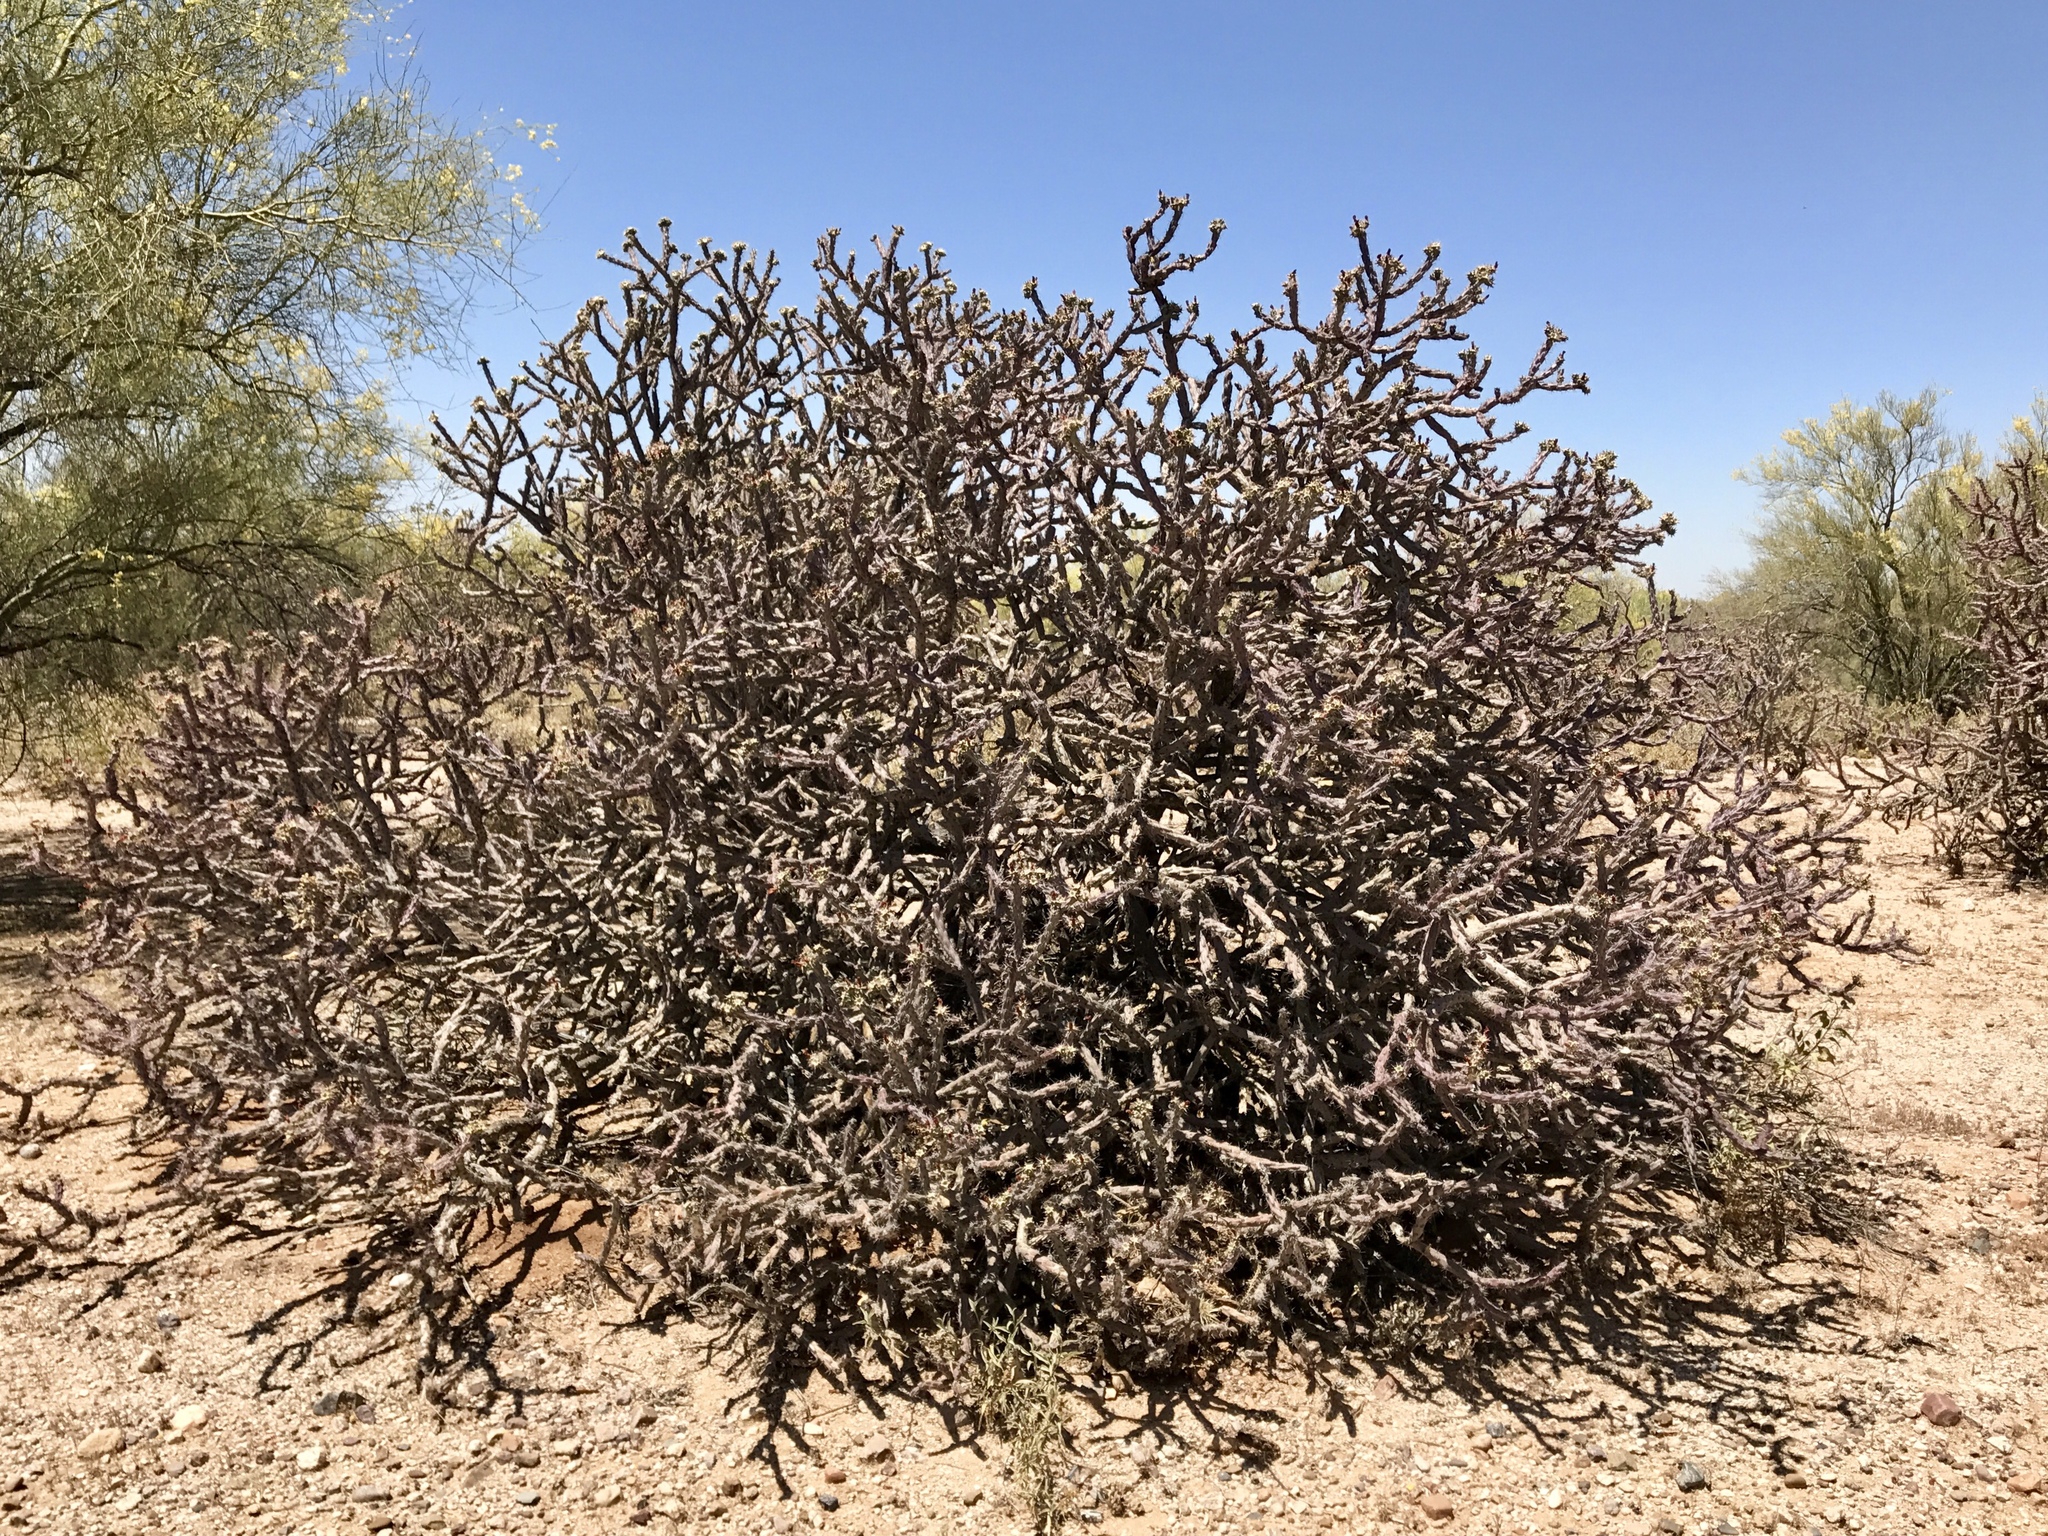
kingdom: Plantae
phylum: Tracheophyta
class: Magnoliopsida
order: Caryophyllales
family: Cactaceae
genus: Cylindropuntia
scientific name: Cylindropuntia thurberi
